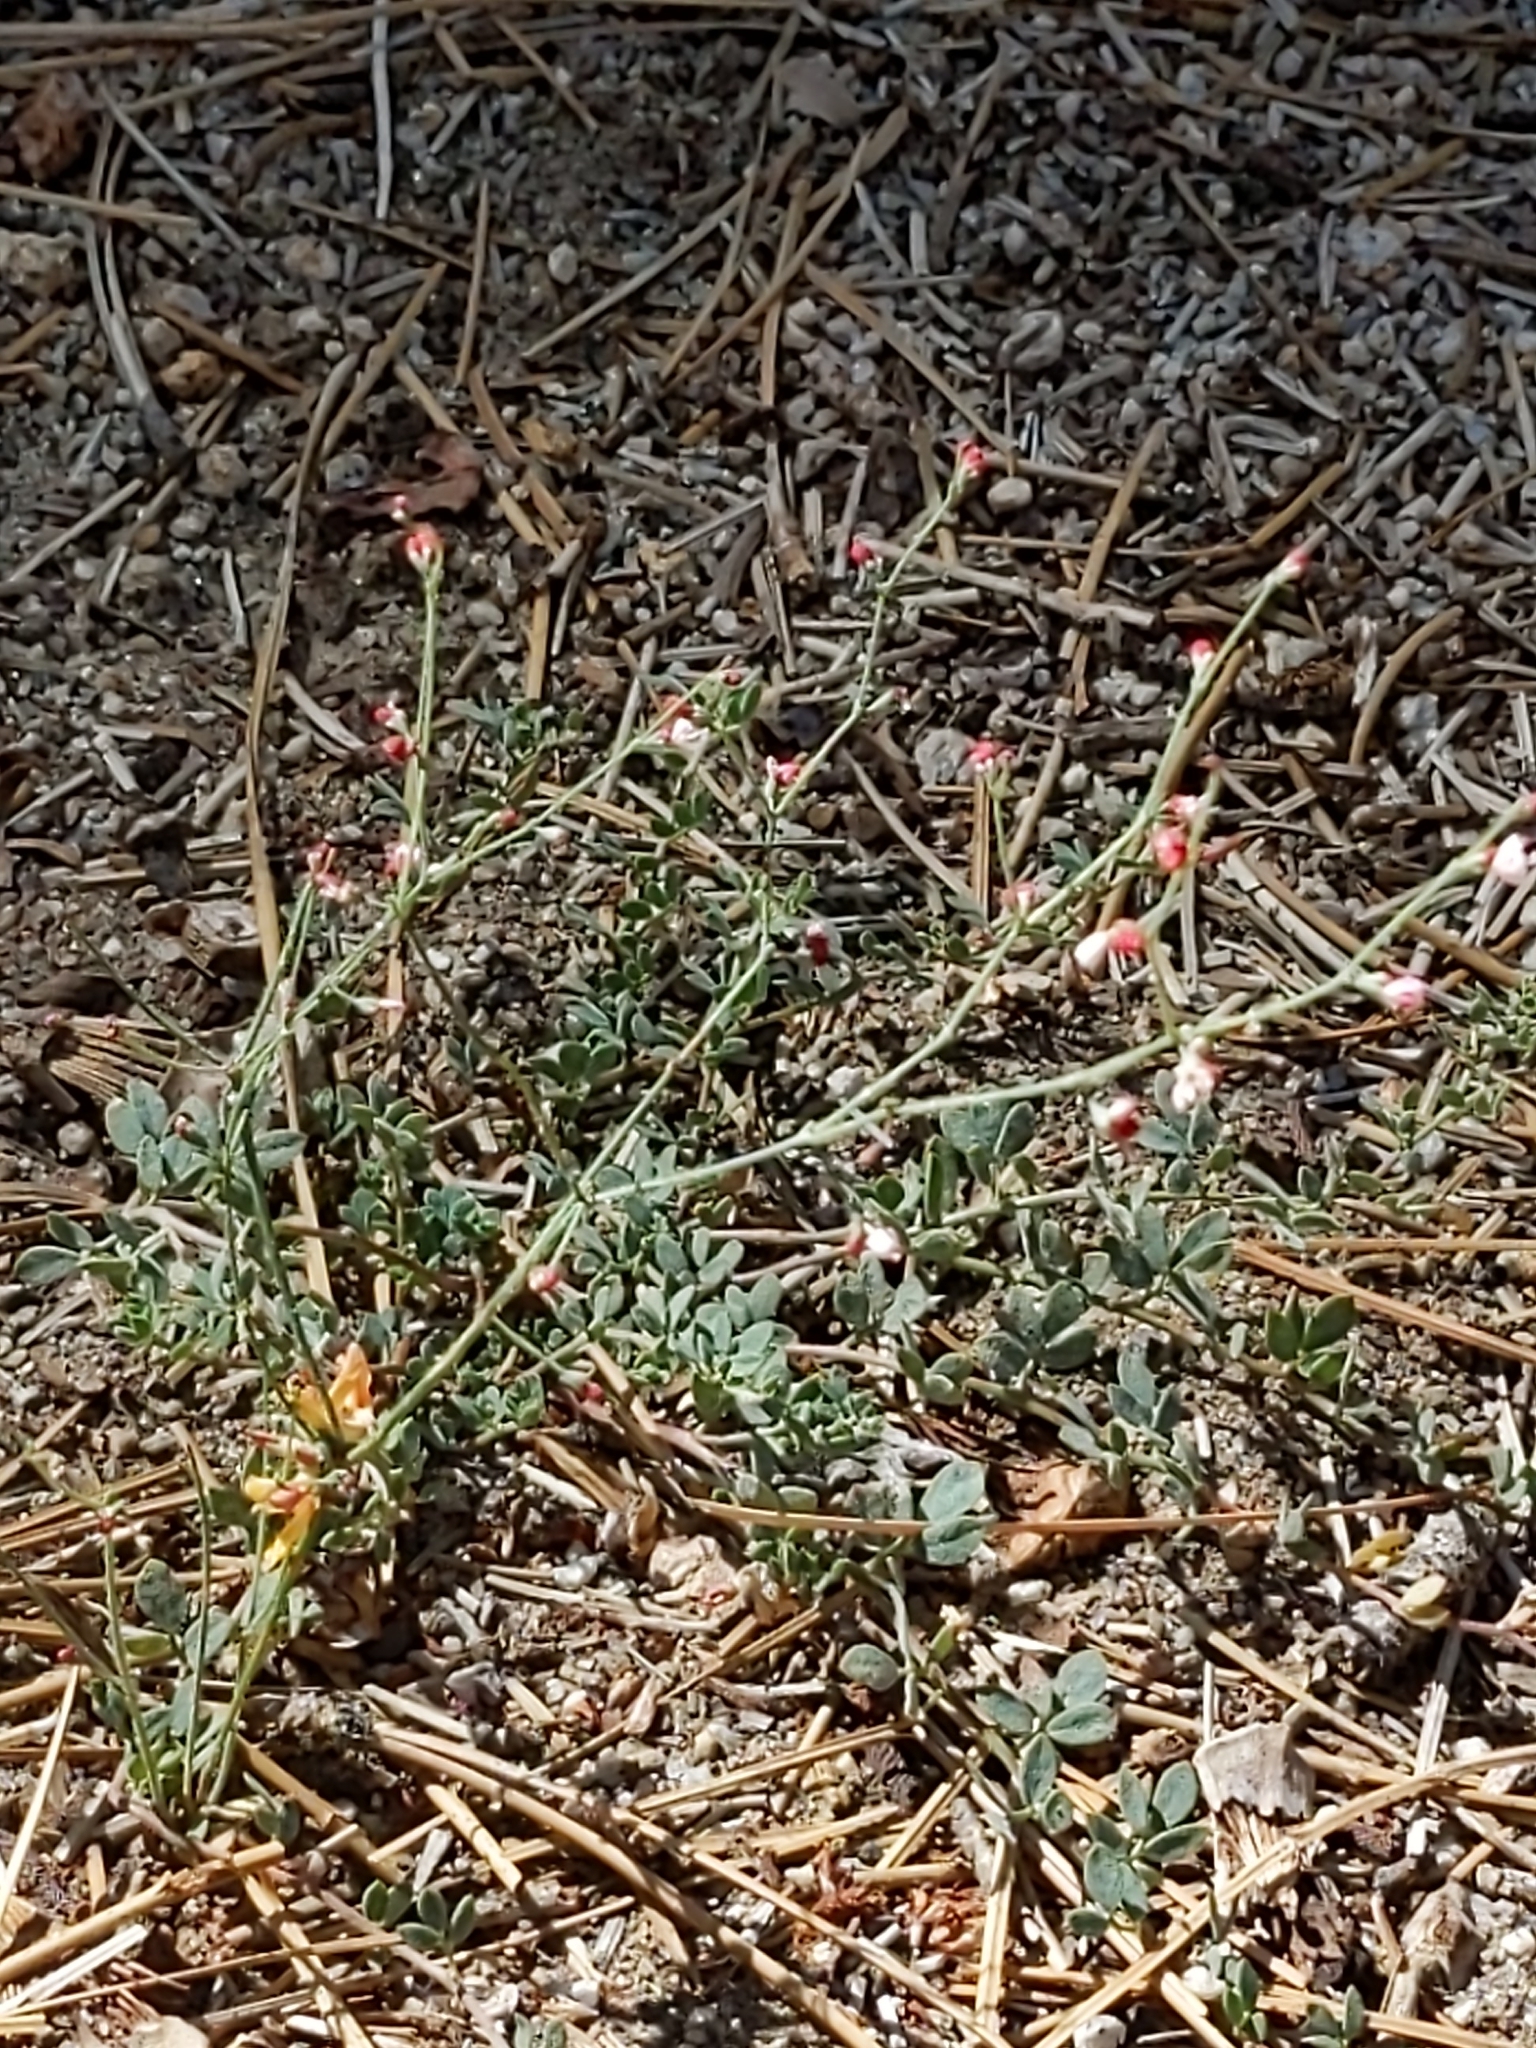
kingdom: Plantae
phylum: Tracheophyta
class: Magnoliopsida
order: Caryophyllales
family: Polygonaceae
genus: Eriogonum
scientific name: Eriogonum apiculatum
